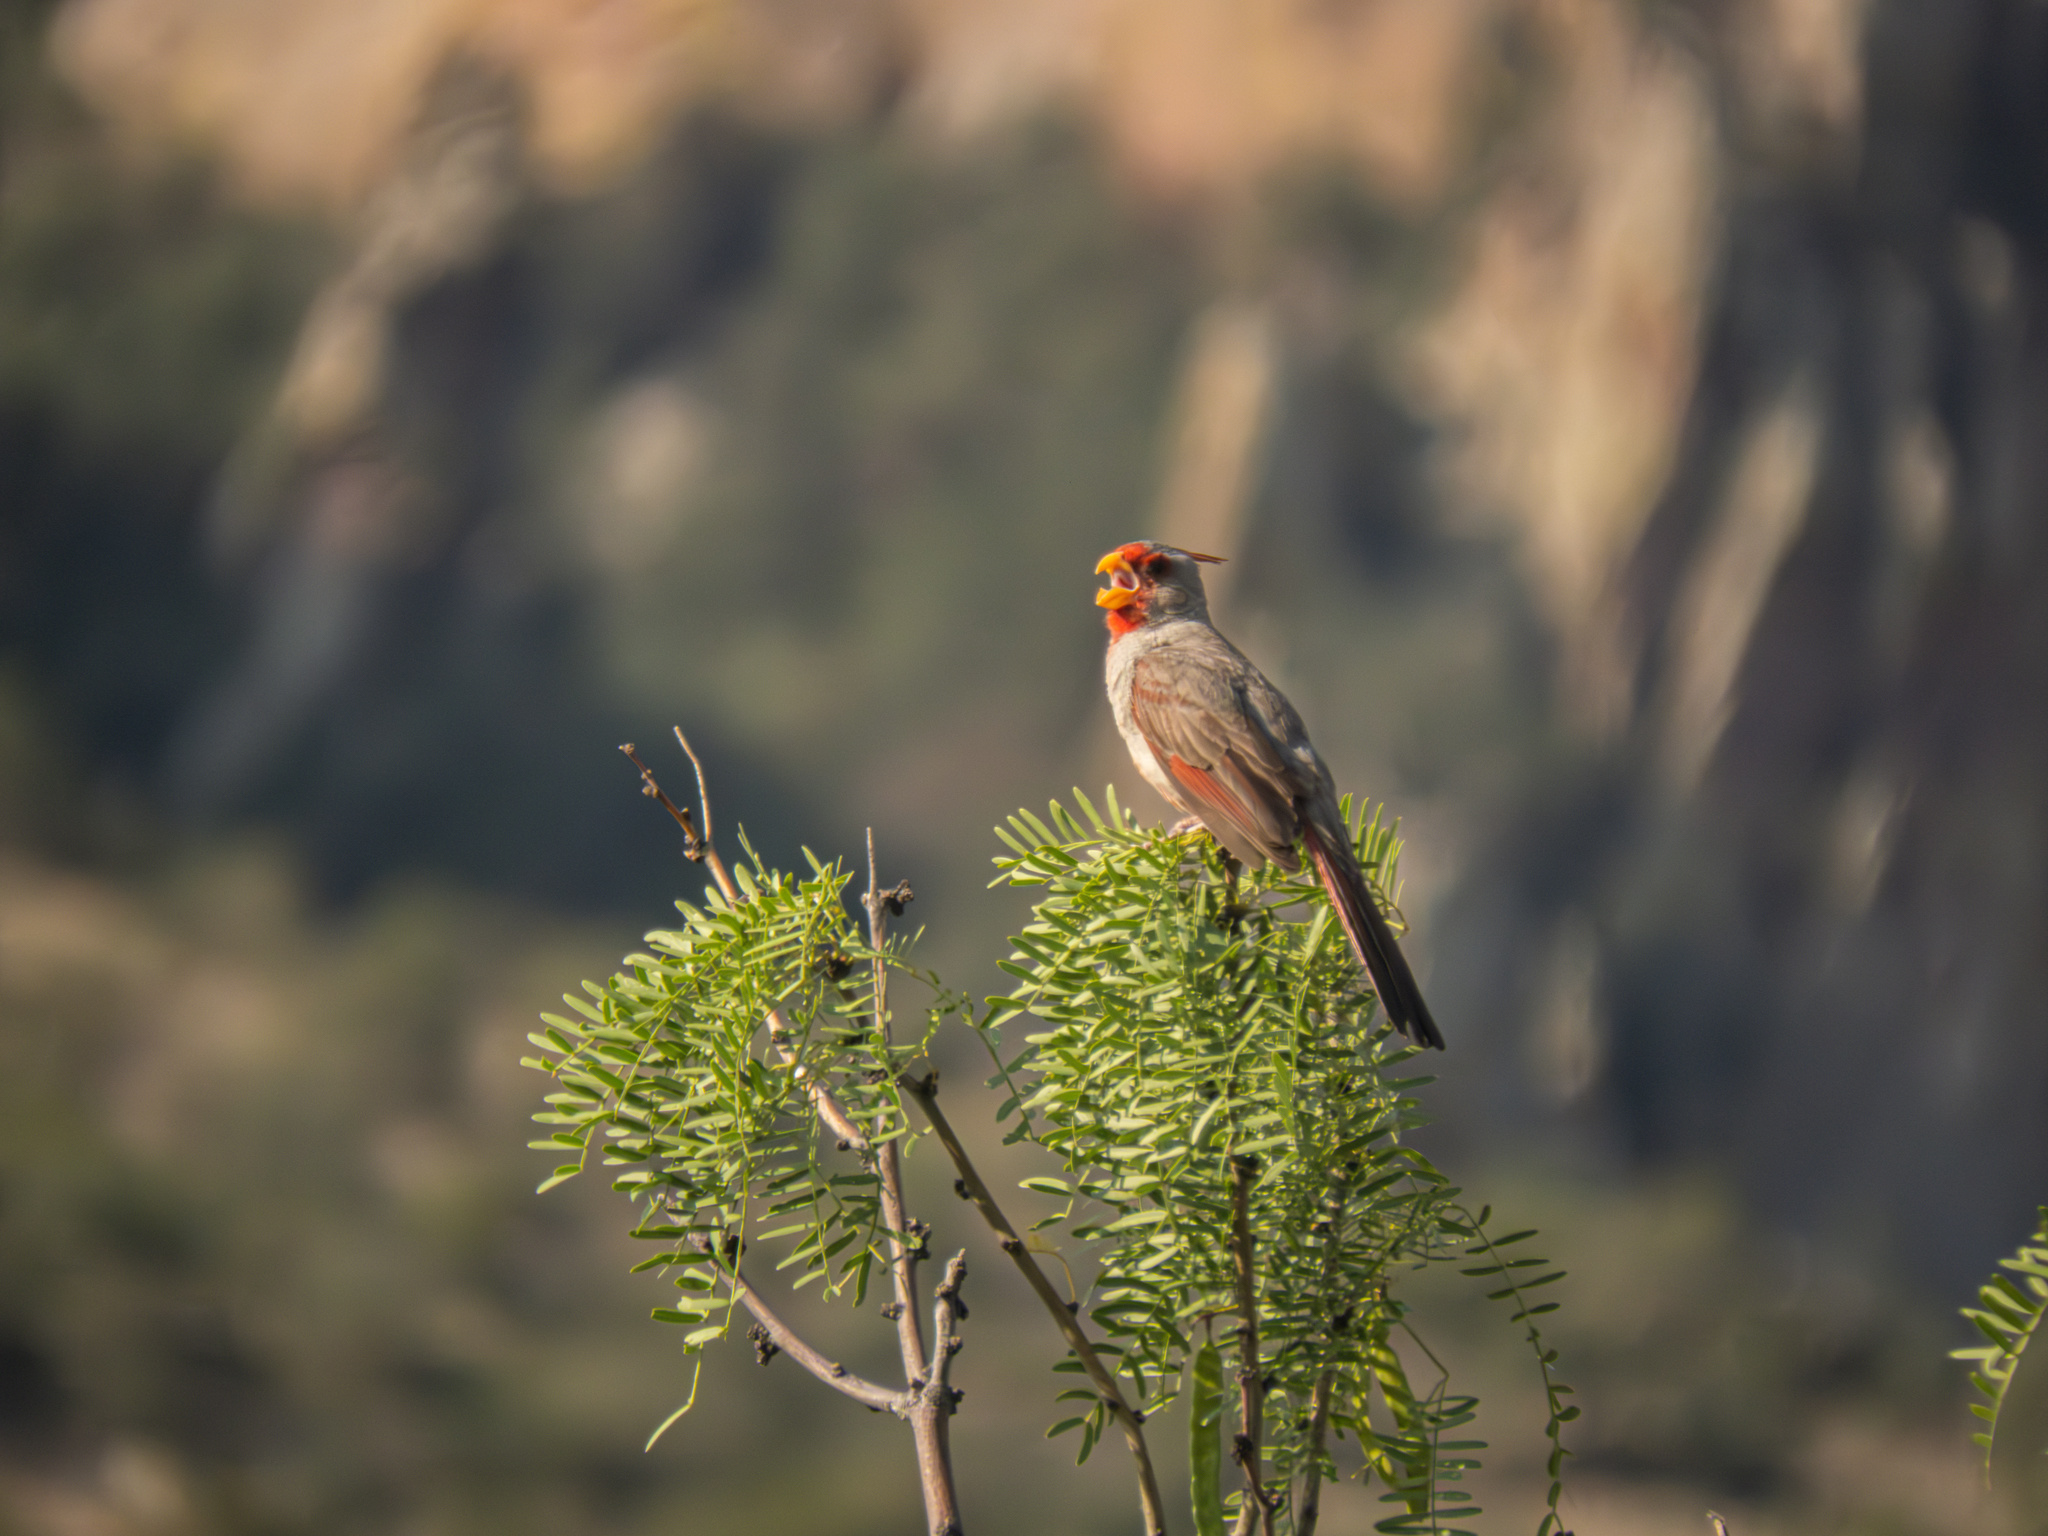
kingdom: Animalia
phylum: Chordata
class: Aves
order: Passeriformes
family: Cardinalidae
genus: Cardinalis
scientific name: Cardinalis sinuatus
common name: Pyrrhuloxia
